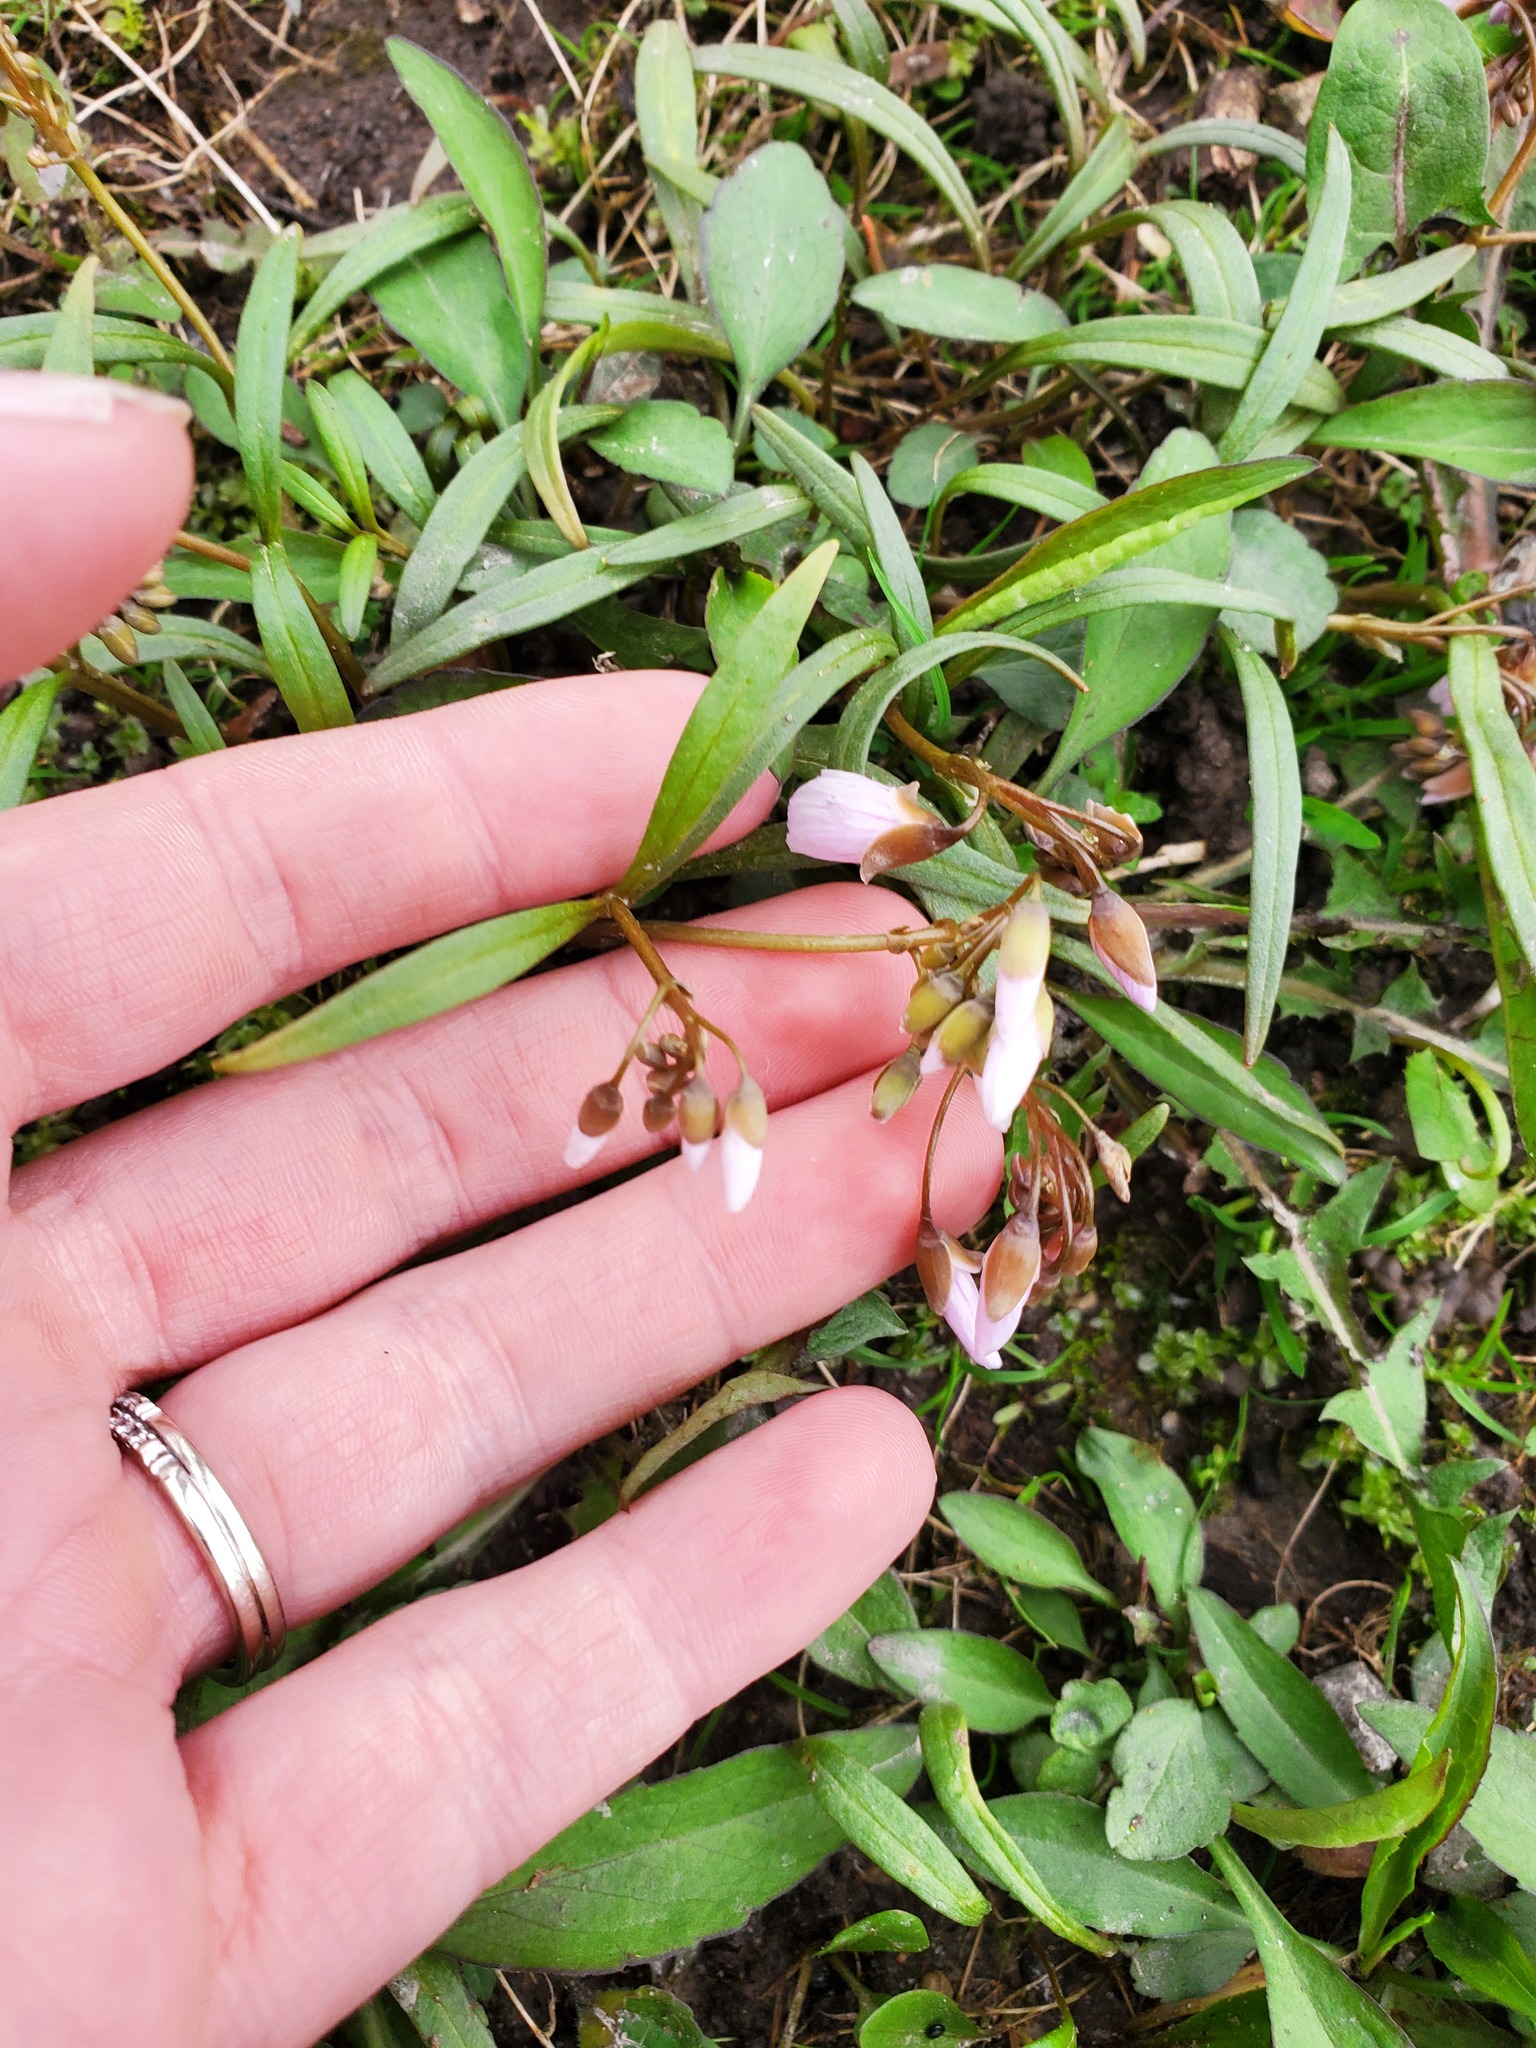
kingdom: Plantae
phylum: Tracheophyta
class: Magnoliopsida
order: Caryophyllales
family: Montiaceae
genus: Claytonia
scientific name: Claytonia virginica
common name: Virginia springbeauty
